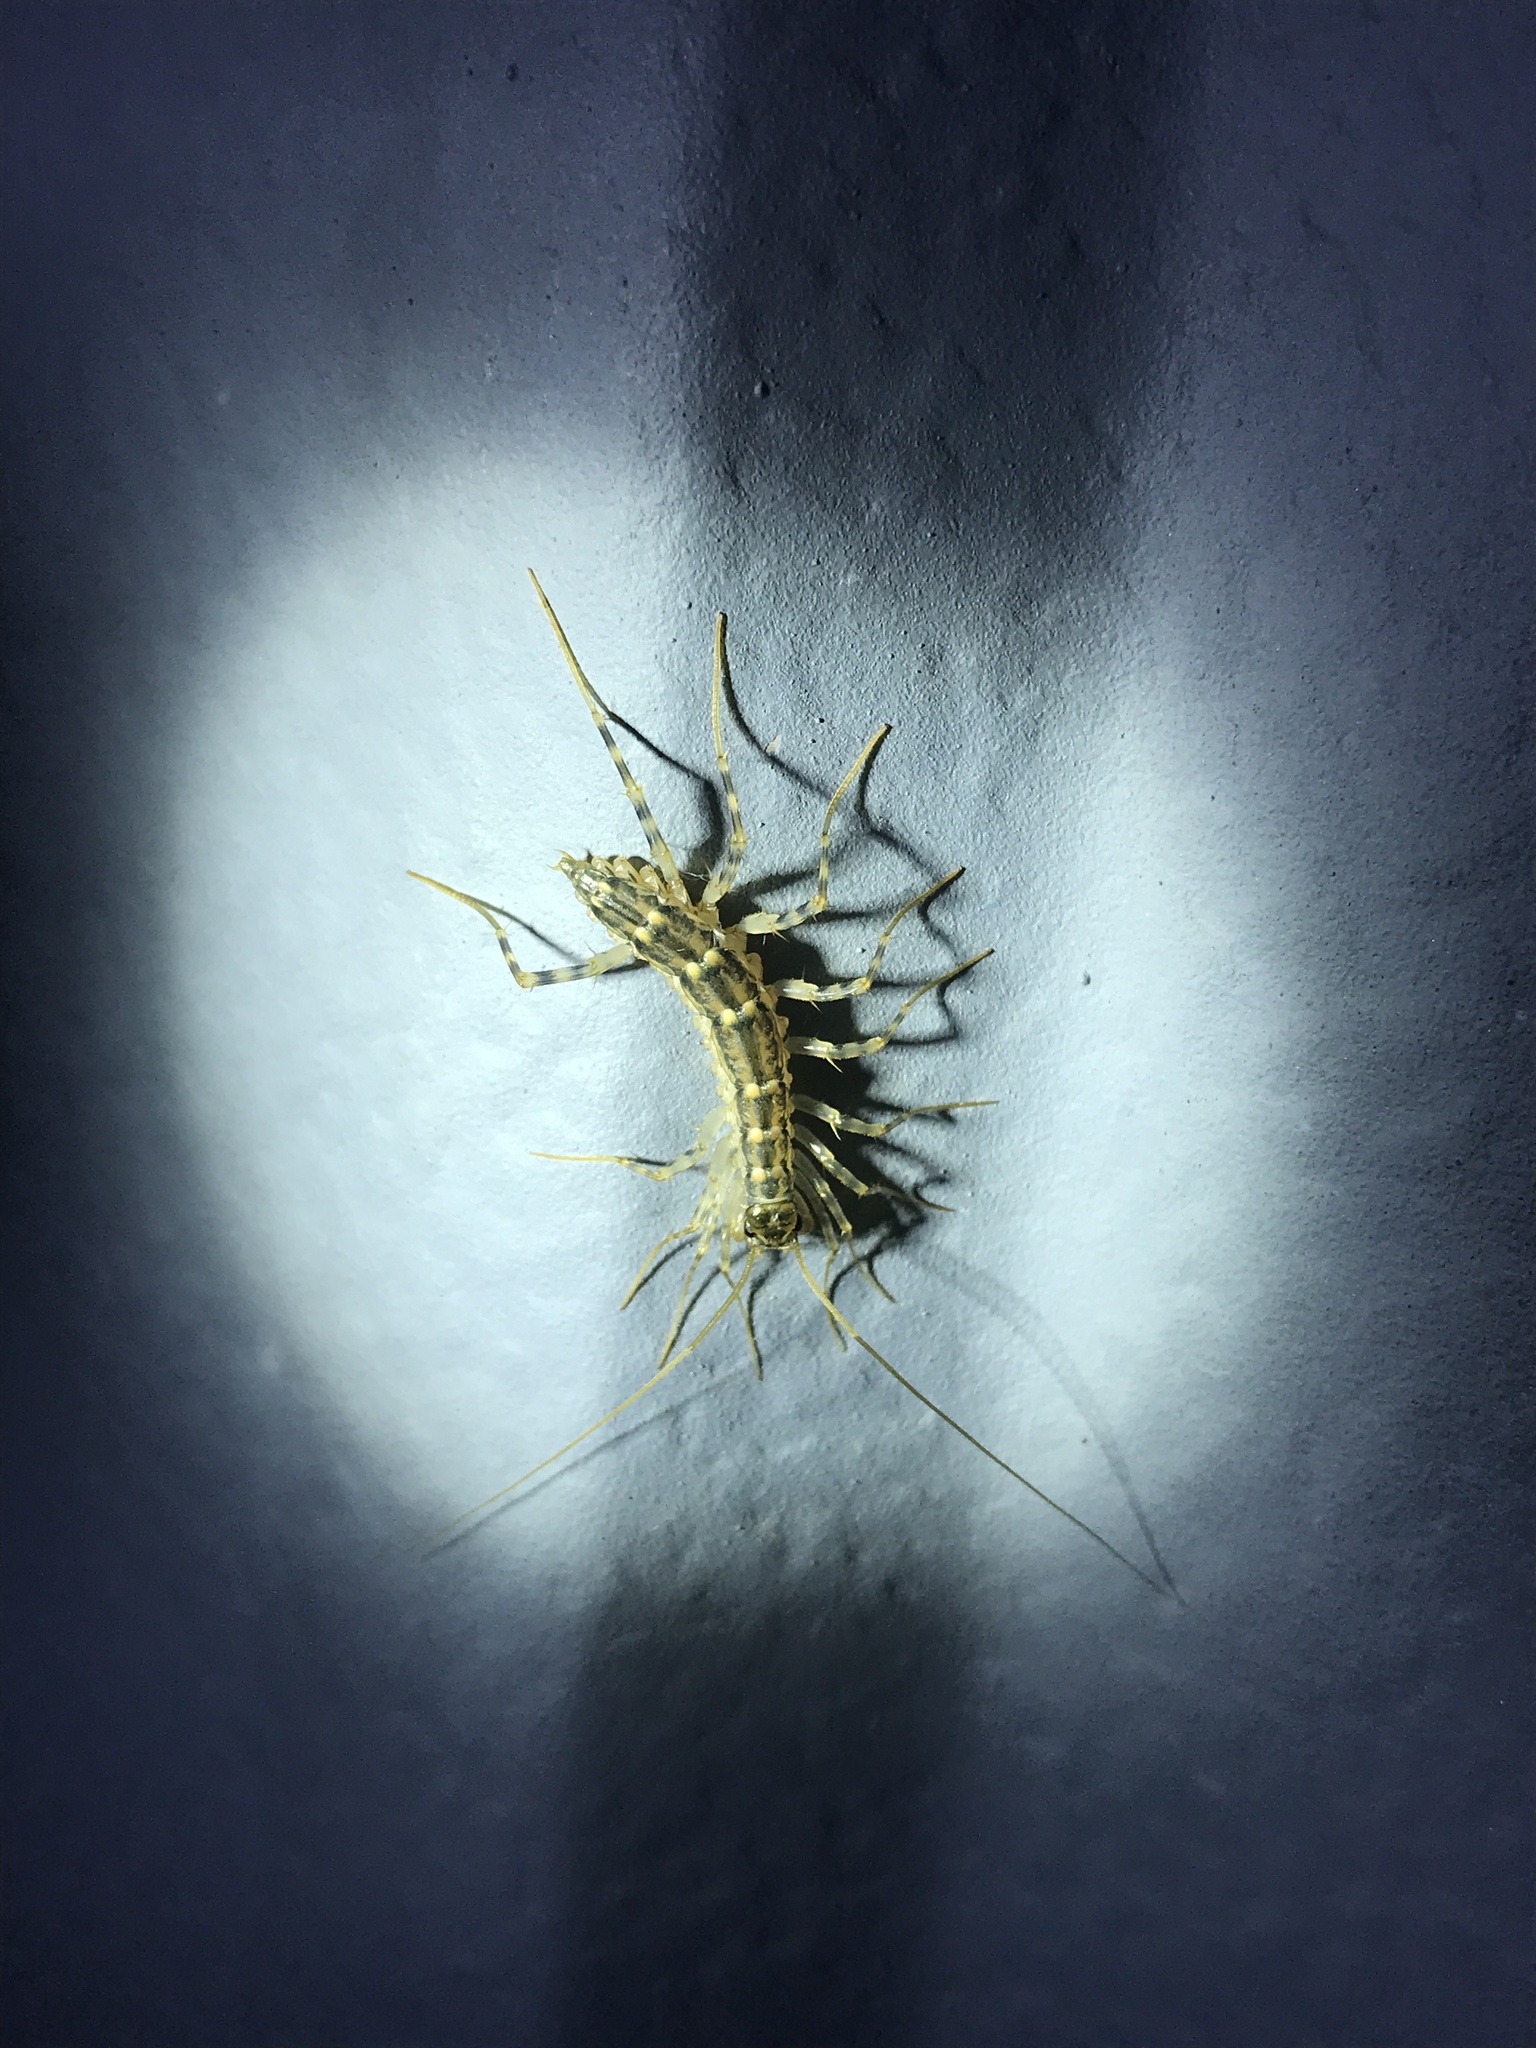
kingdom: Animalia
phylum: Arthropoda
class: Chilopoda
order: Scutigeromorpha
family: Scutigeridae
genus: Thereuonema
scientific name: Thereuonema tuberculata
